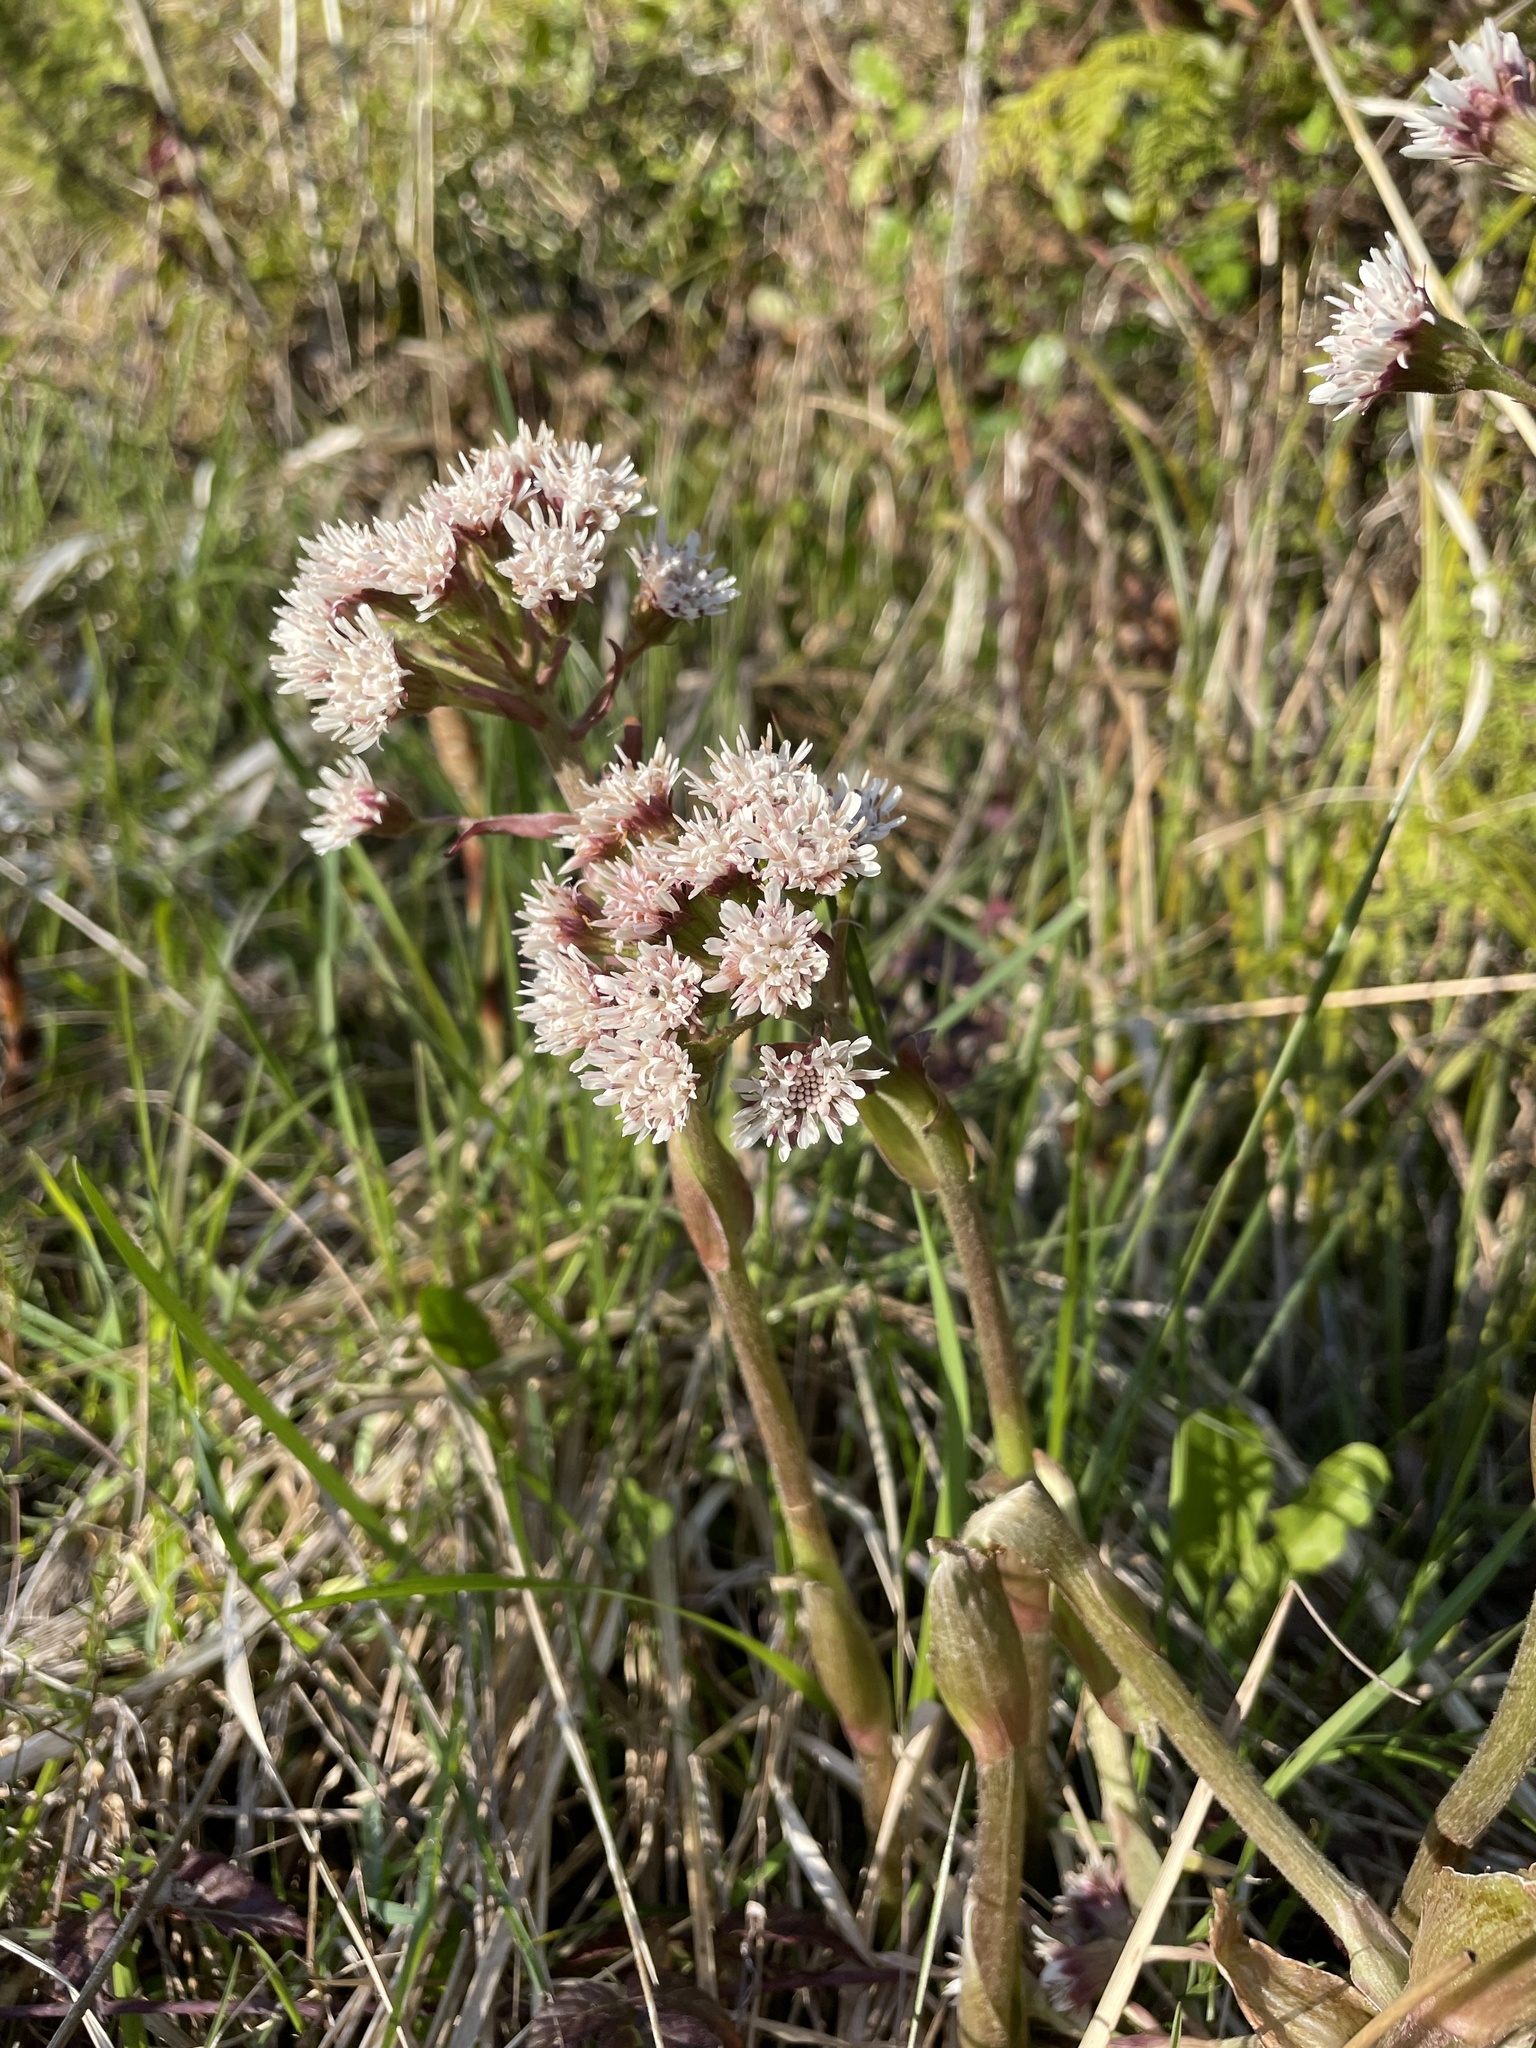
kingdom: Plantae
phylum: Tracheophyta
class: Magnoliopsida
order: Asterales
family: Asteraceae
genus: Petasites
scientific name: Petasites frigidus
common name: Arctic butterbur
